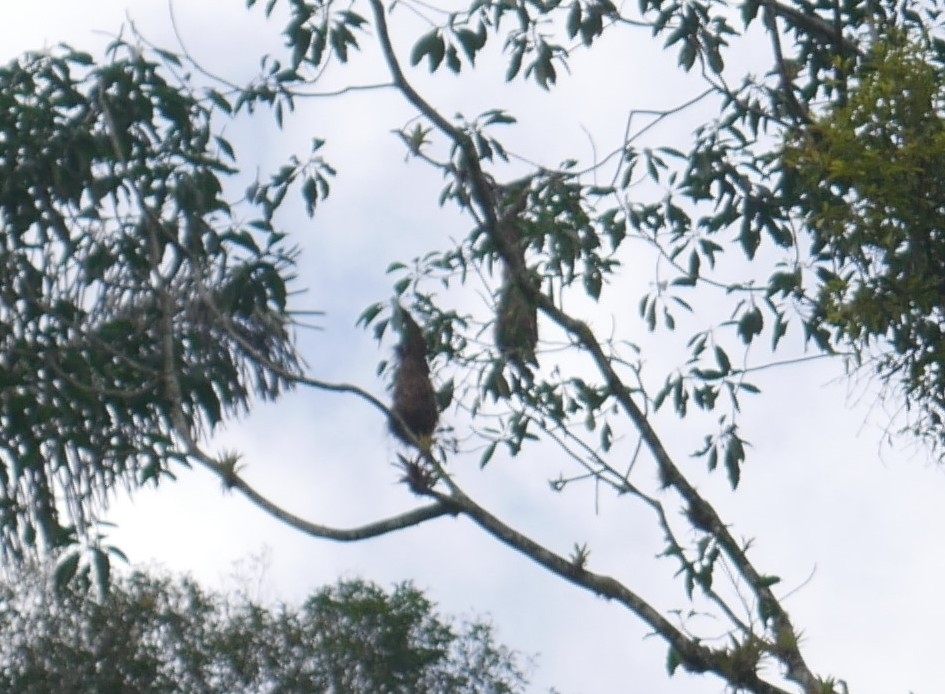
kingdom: Animalia
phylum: Chordata
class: Aves
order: Passeriformes
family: Icteridae
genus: Psarocolius
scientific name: Psarocolius decumanus
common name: Crested oropendola
